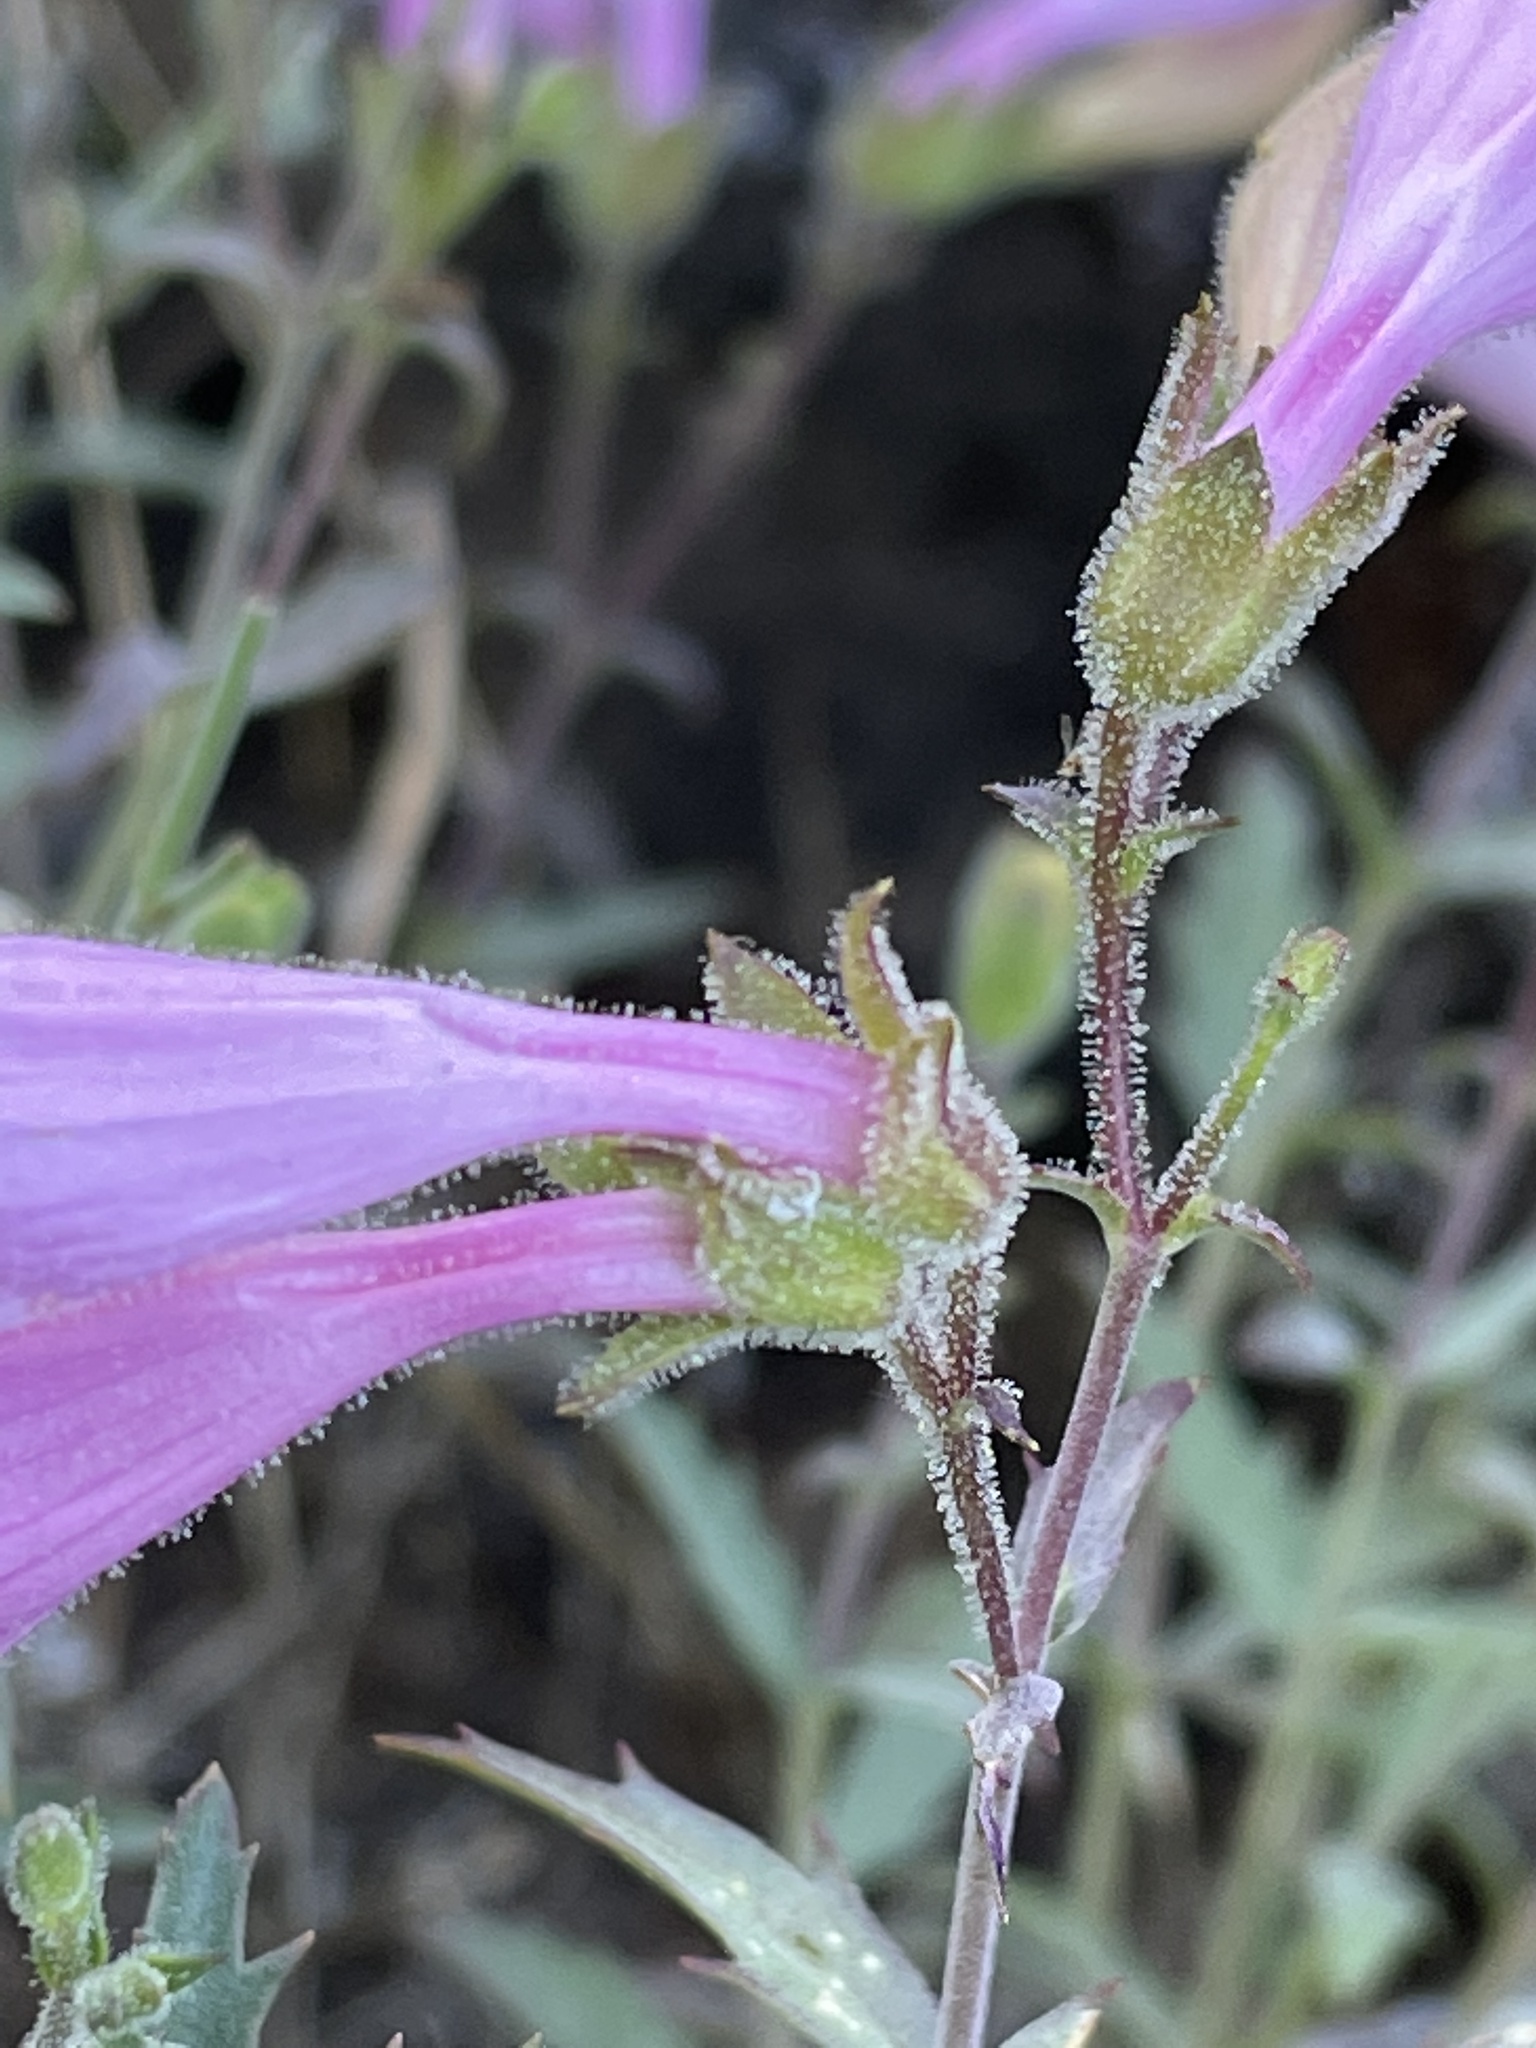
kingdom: Plantae
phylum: Tracheophyta
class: Magnoliopsida
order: Lamiales
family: Plantaginaceae
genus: Penstemon
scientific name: Penstemon richardsonii
